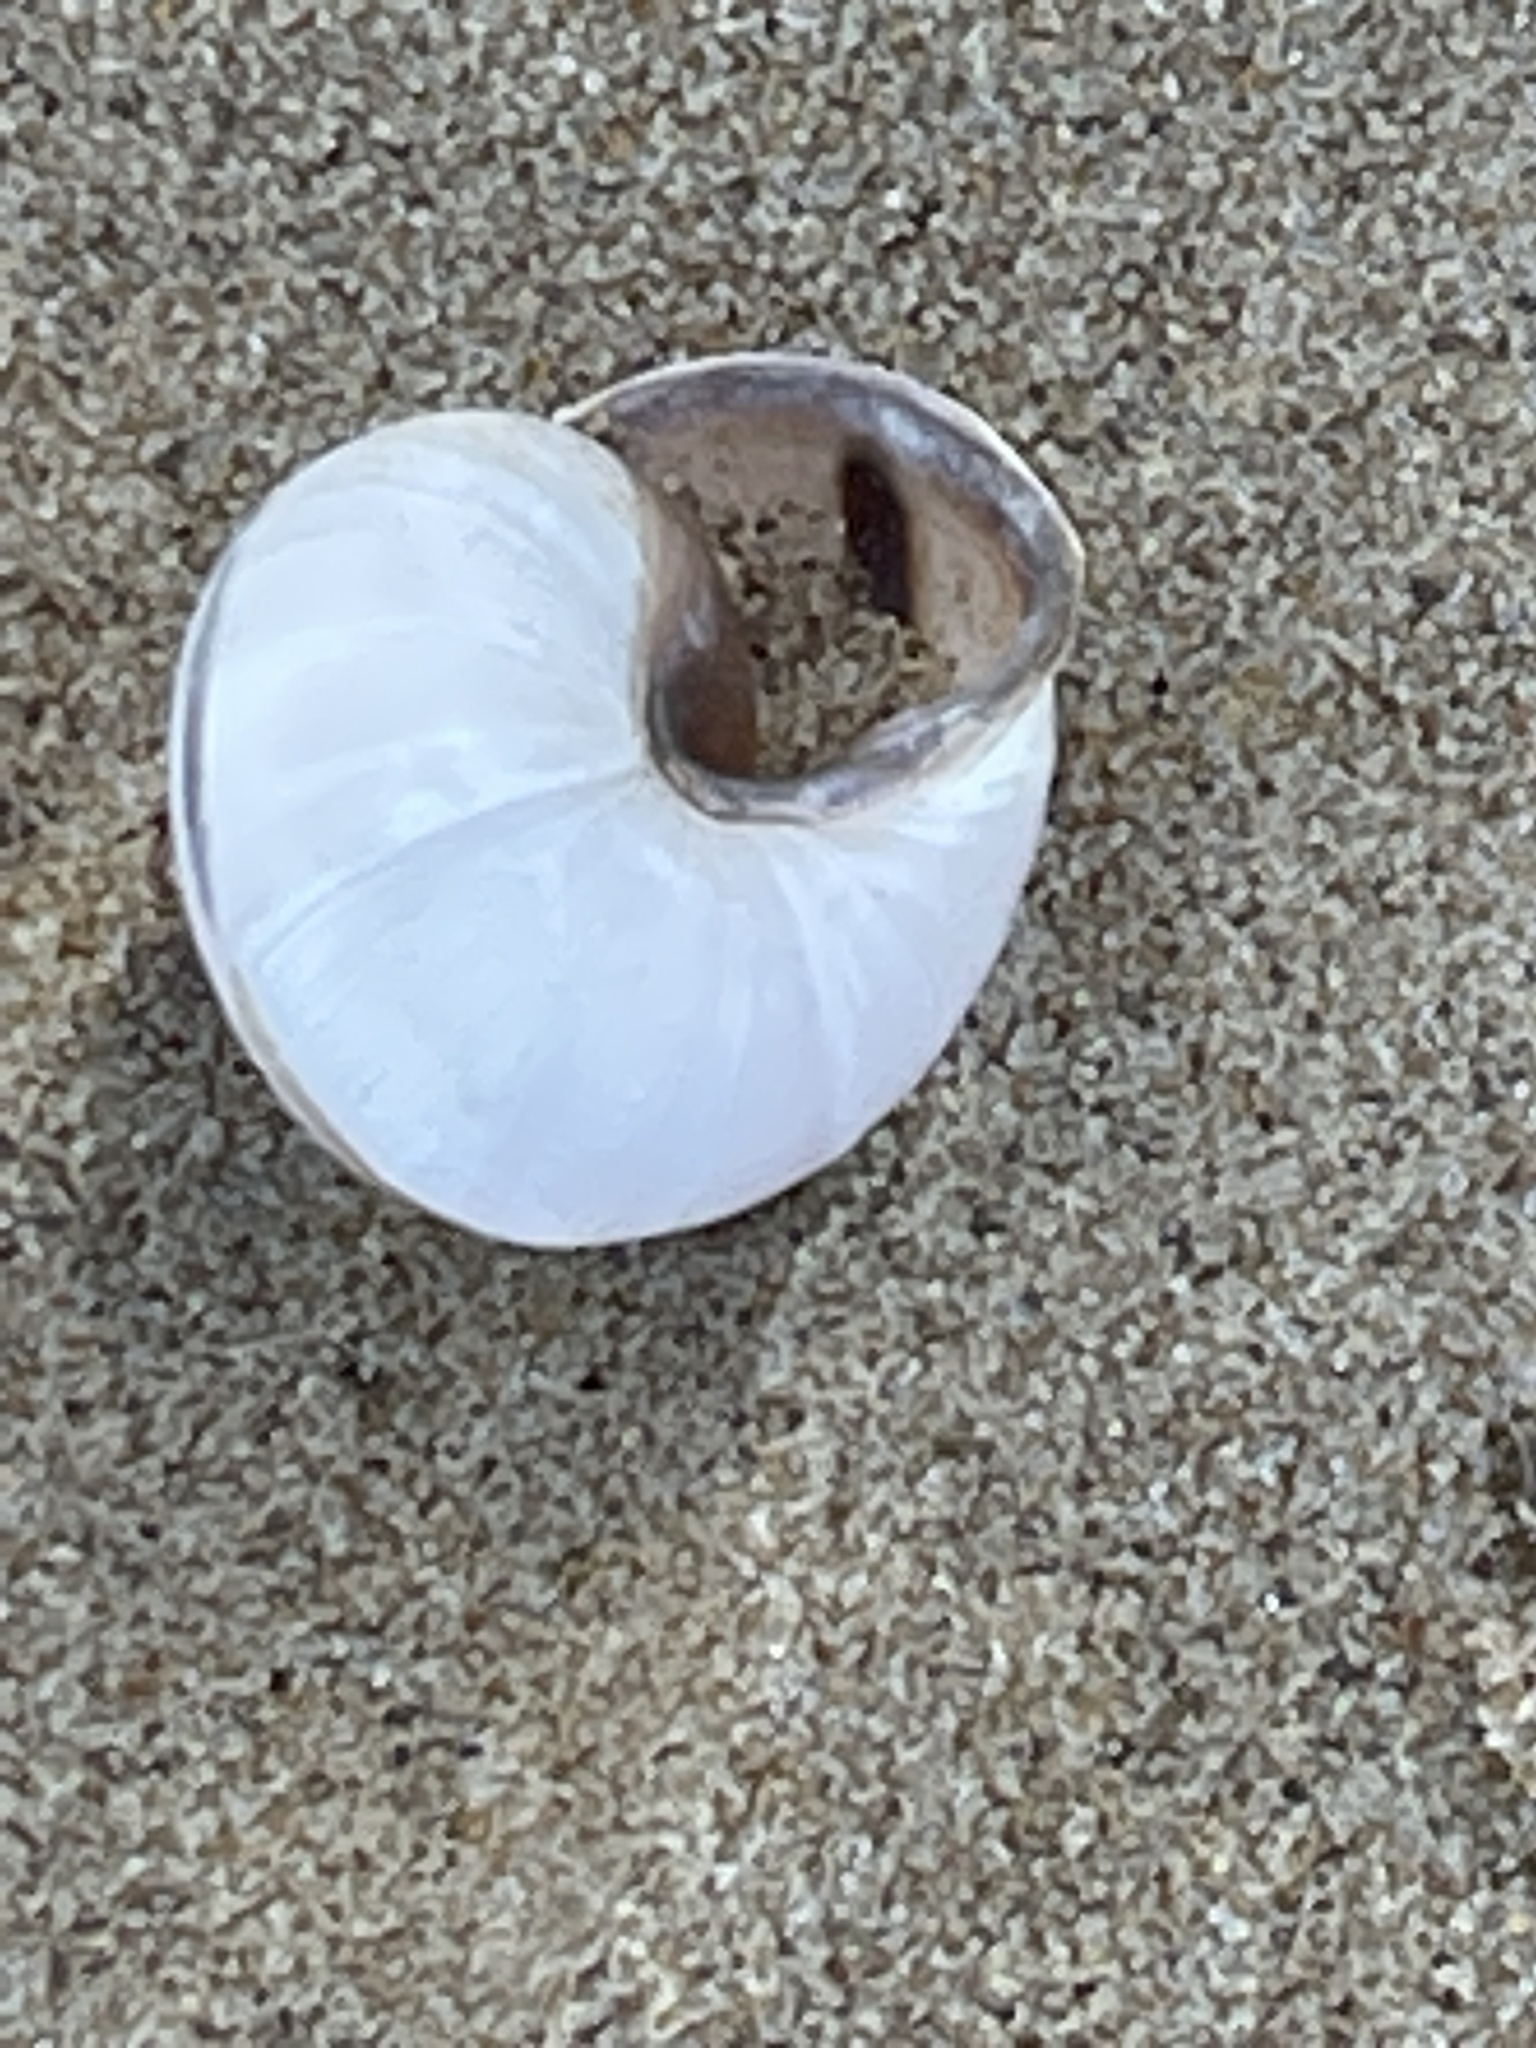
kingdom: Animalia
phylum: Mollusca
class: Gastropoda
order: Stylommatophora
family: Helicidae
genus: Cepaea
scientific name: Cepaea nemoralis
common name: Grovesnail
